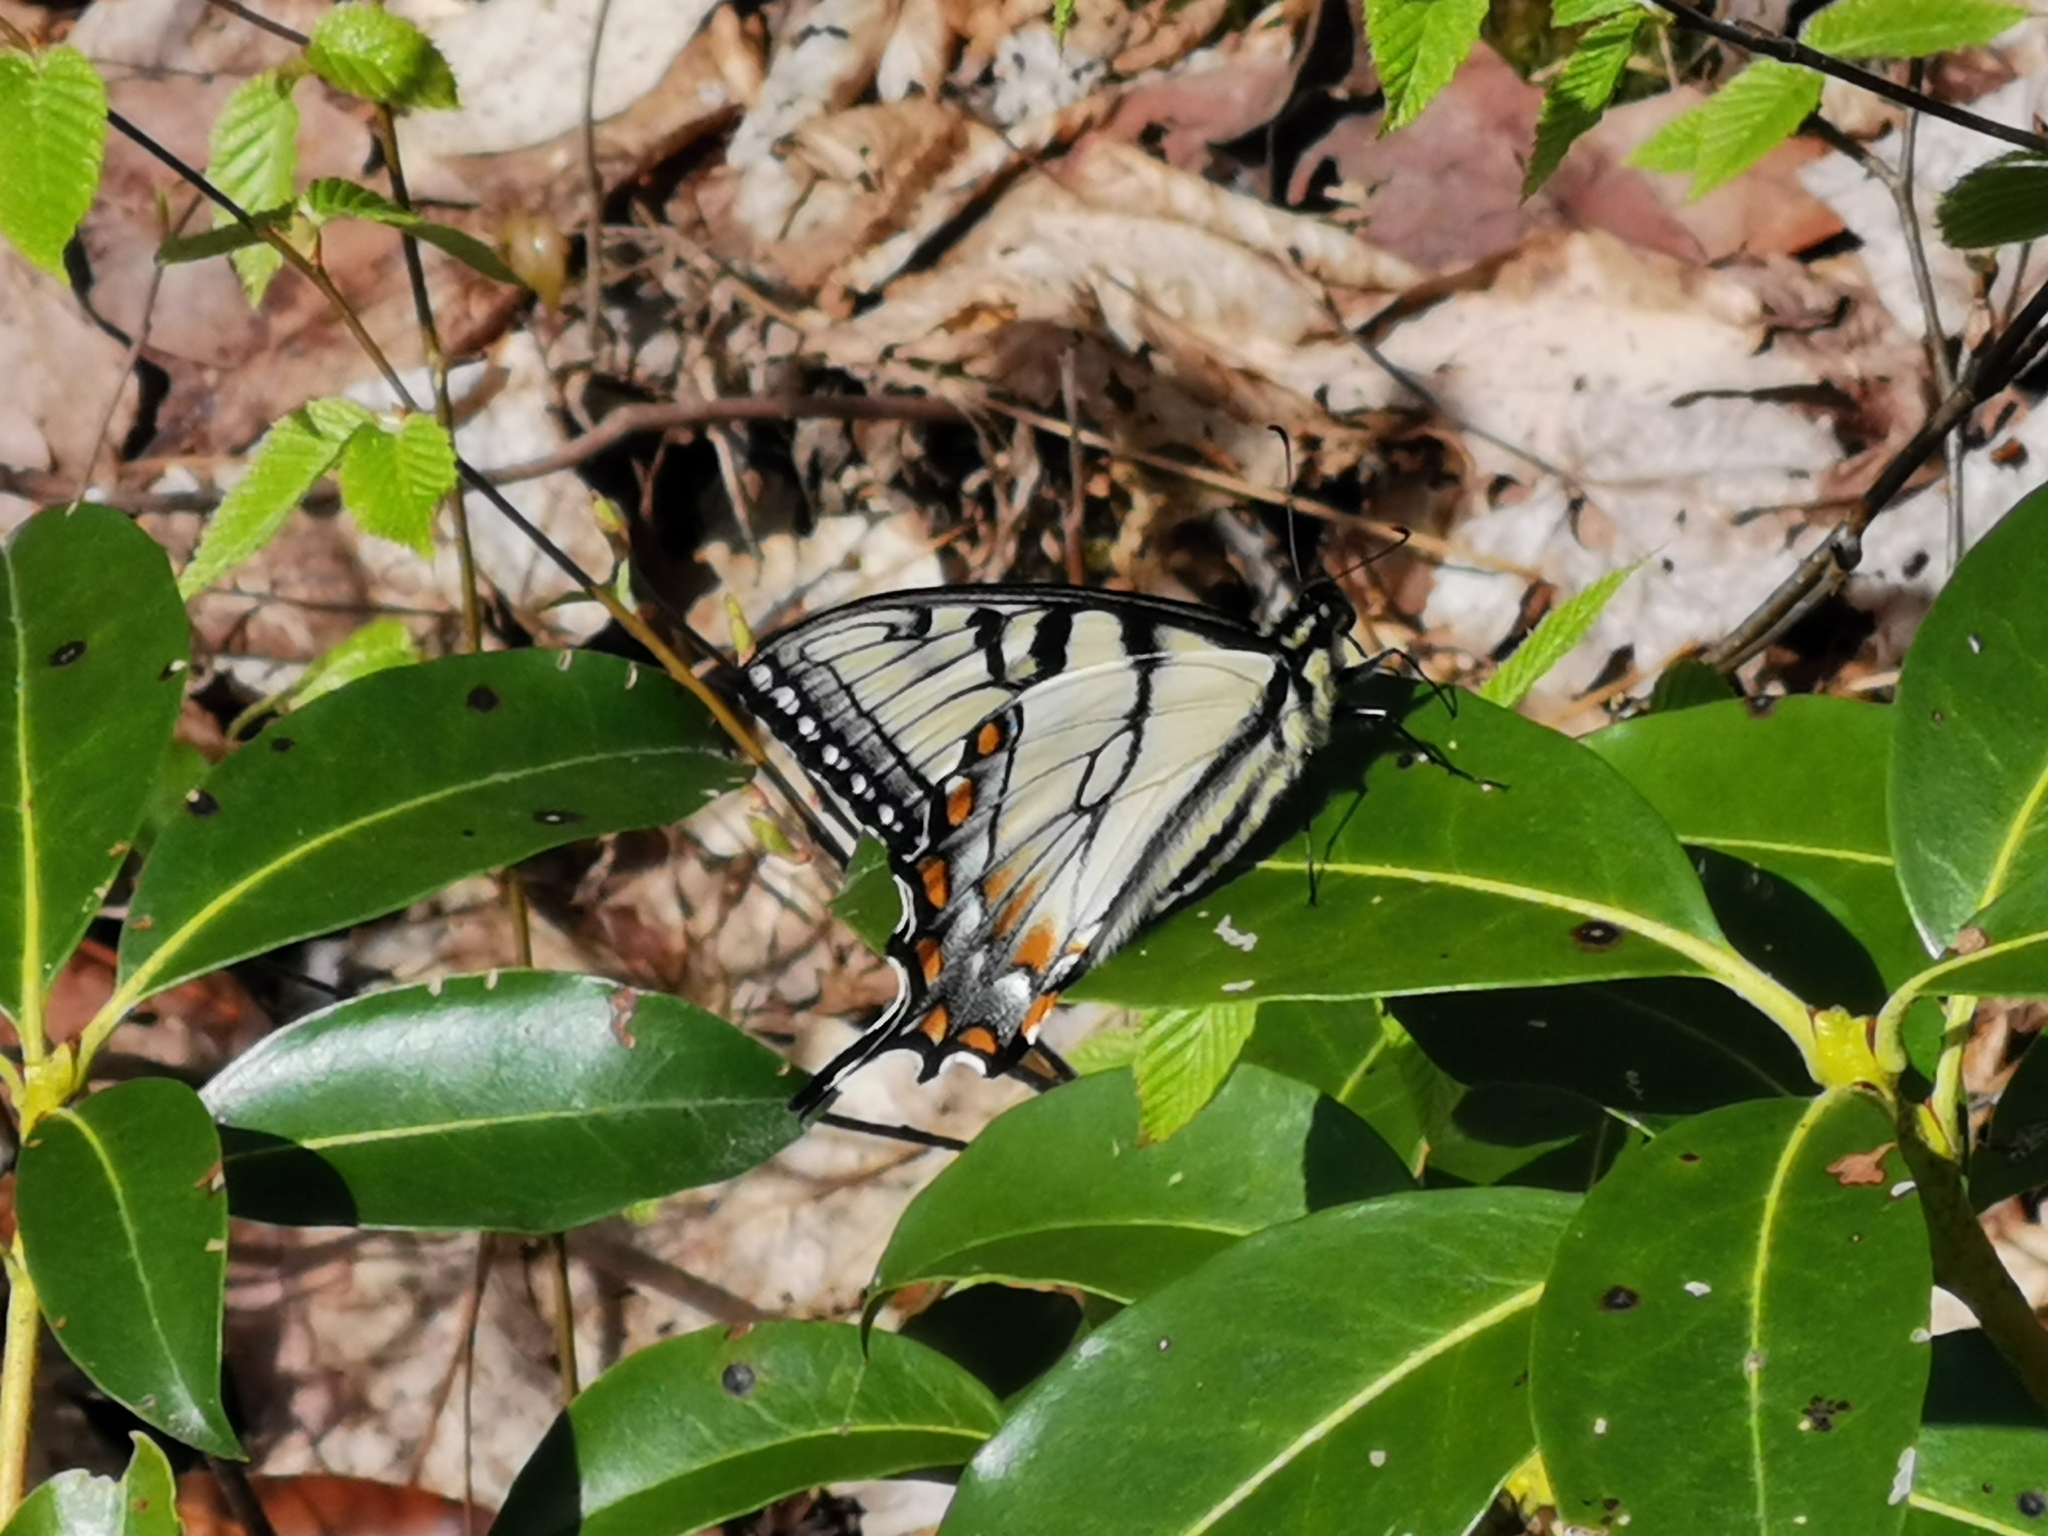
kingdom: Animalia
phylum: Arthropoda
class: Insecta
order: Lepidoptera
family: Papilionidae
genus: Papilio
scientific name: Papilio glaucus
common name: Tiger swallowtail
